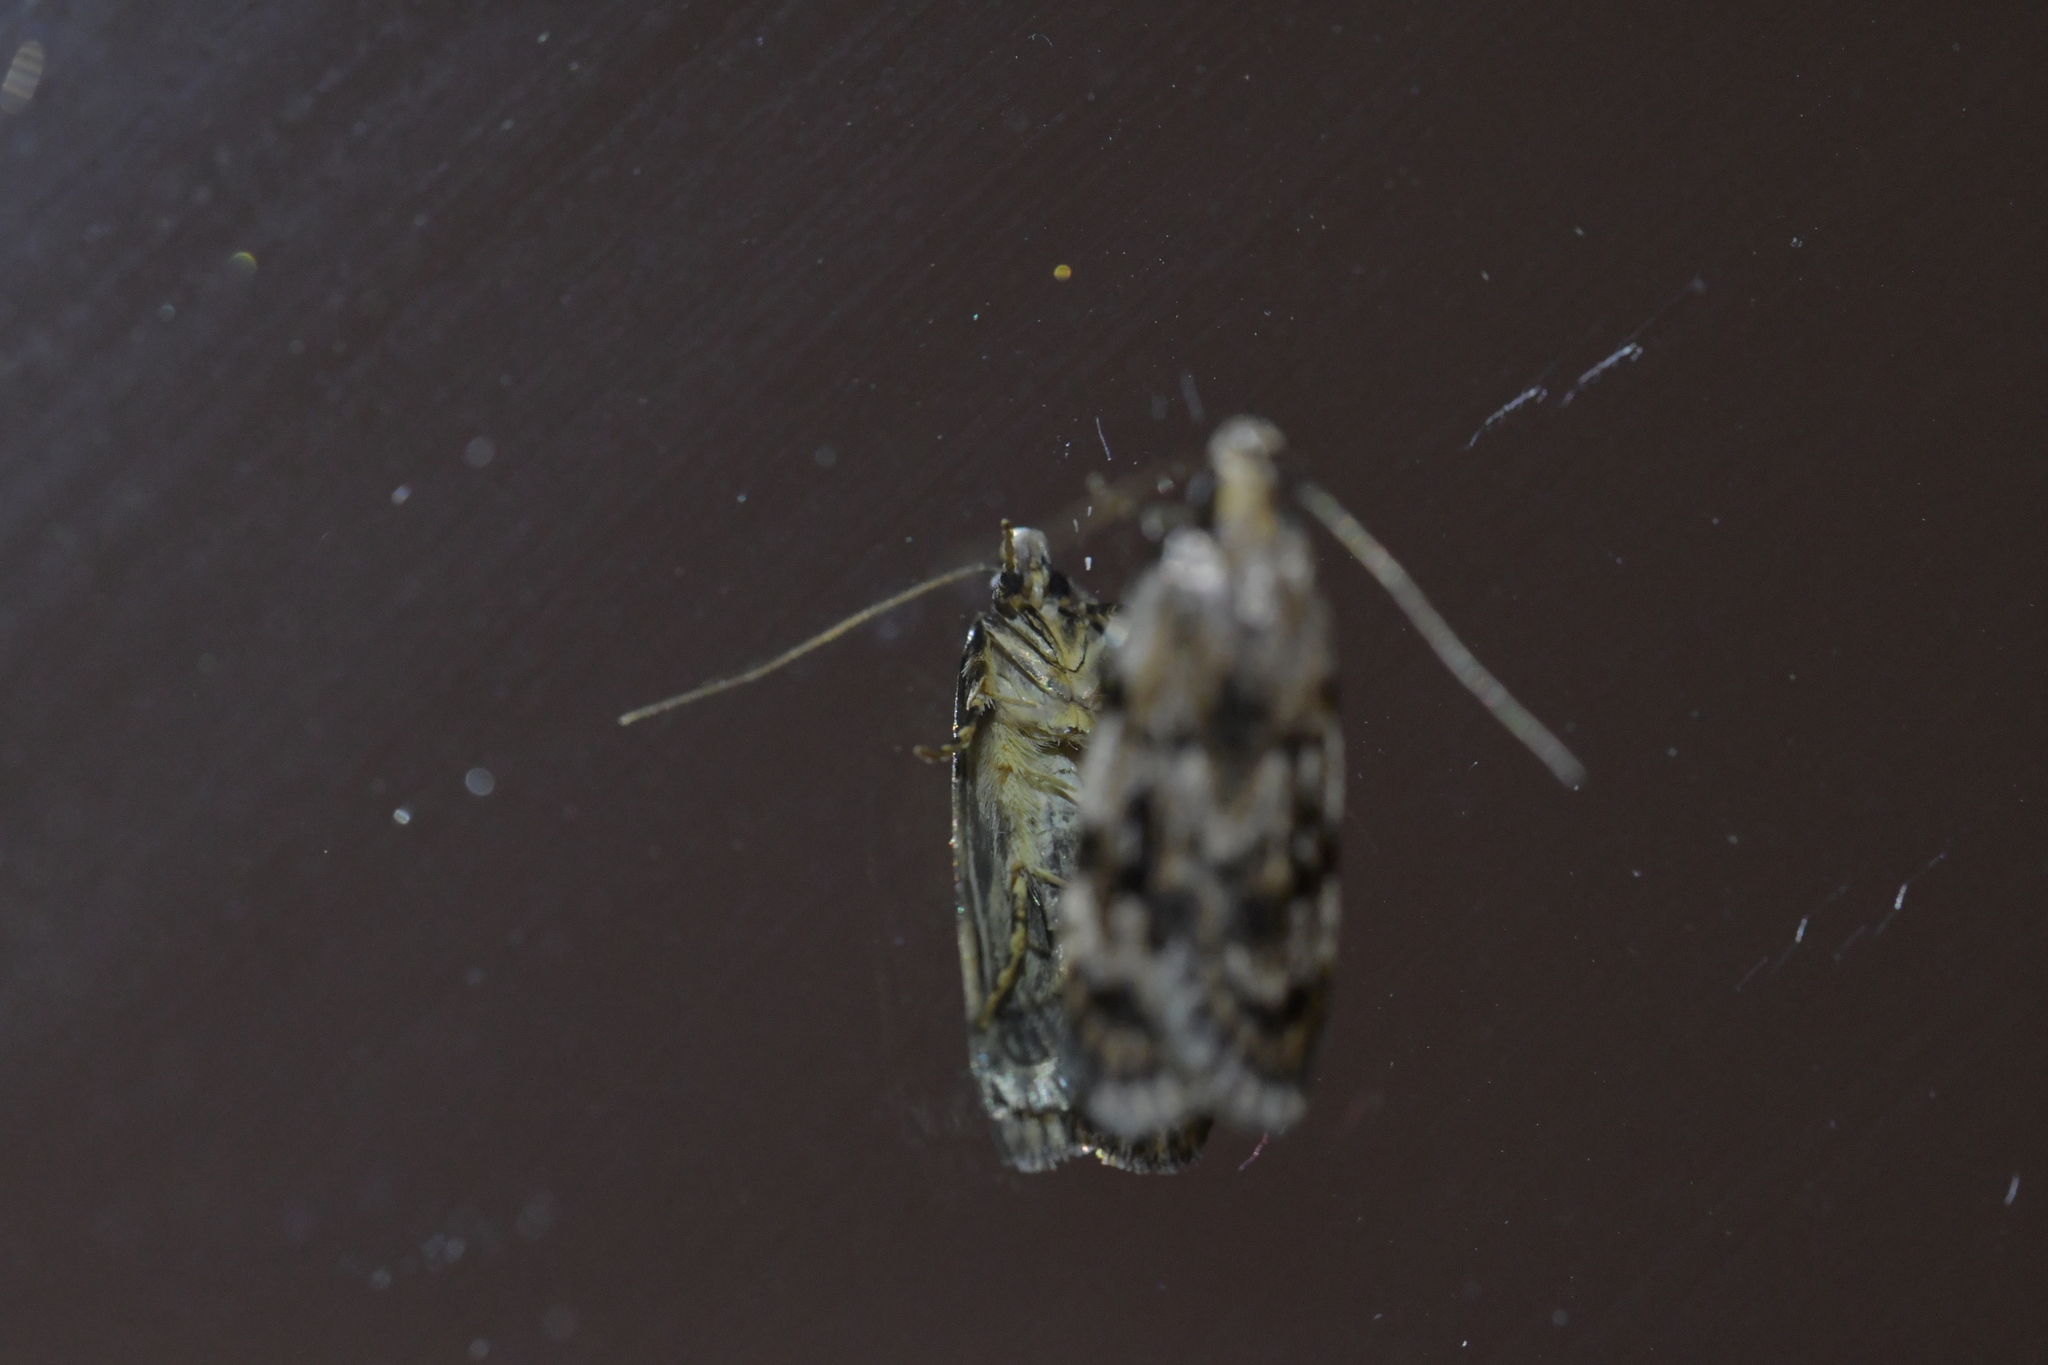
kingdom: Animalia
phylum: Arthropoda
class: Insecta
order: Lepidoptera
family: Oecophoridae
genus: Barea
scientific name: Barea exarcha
